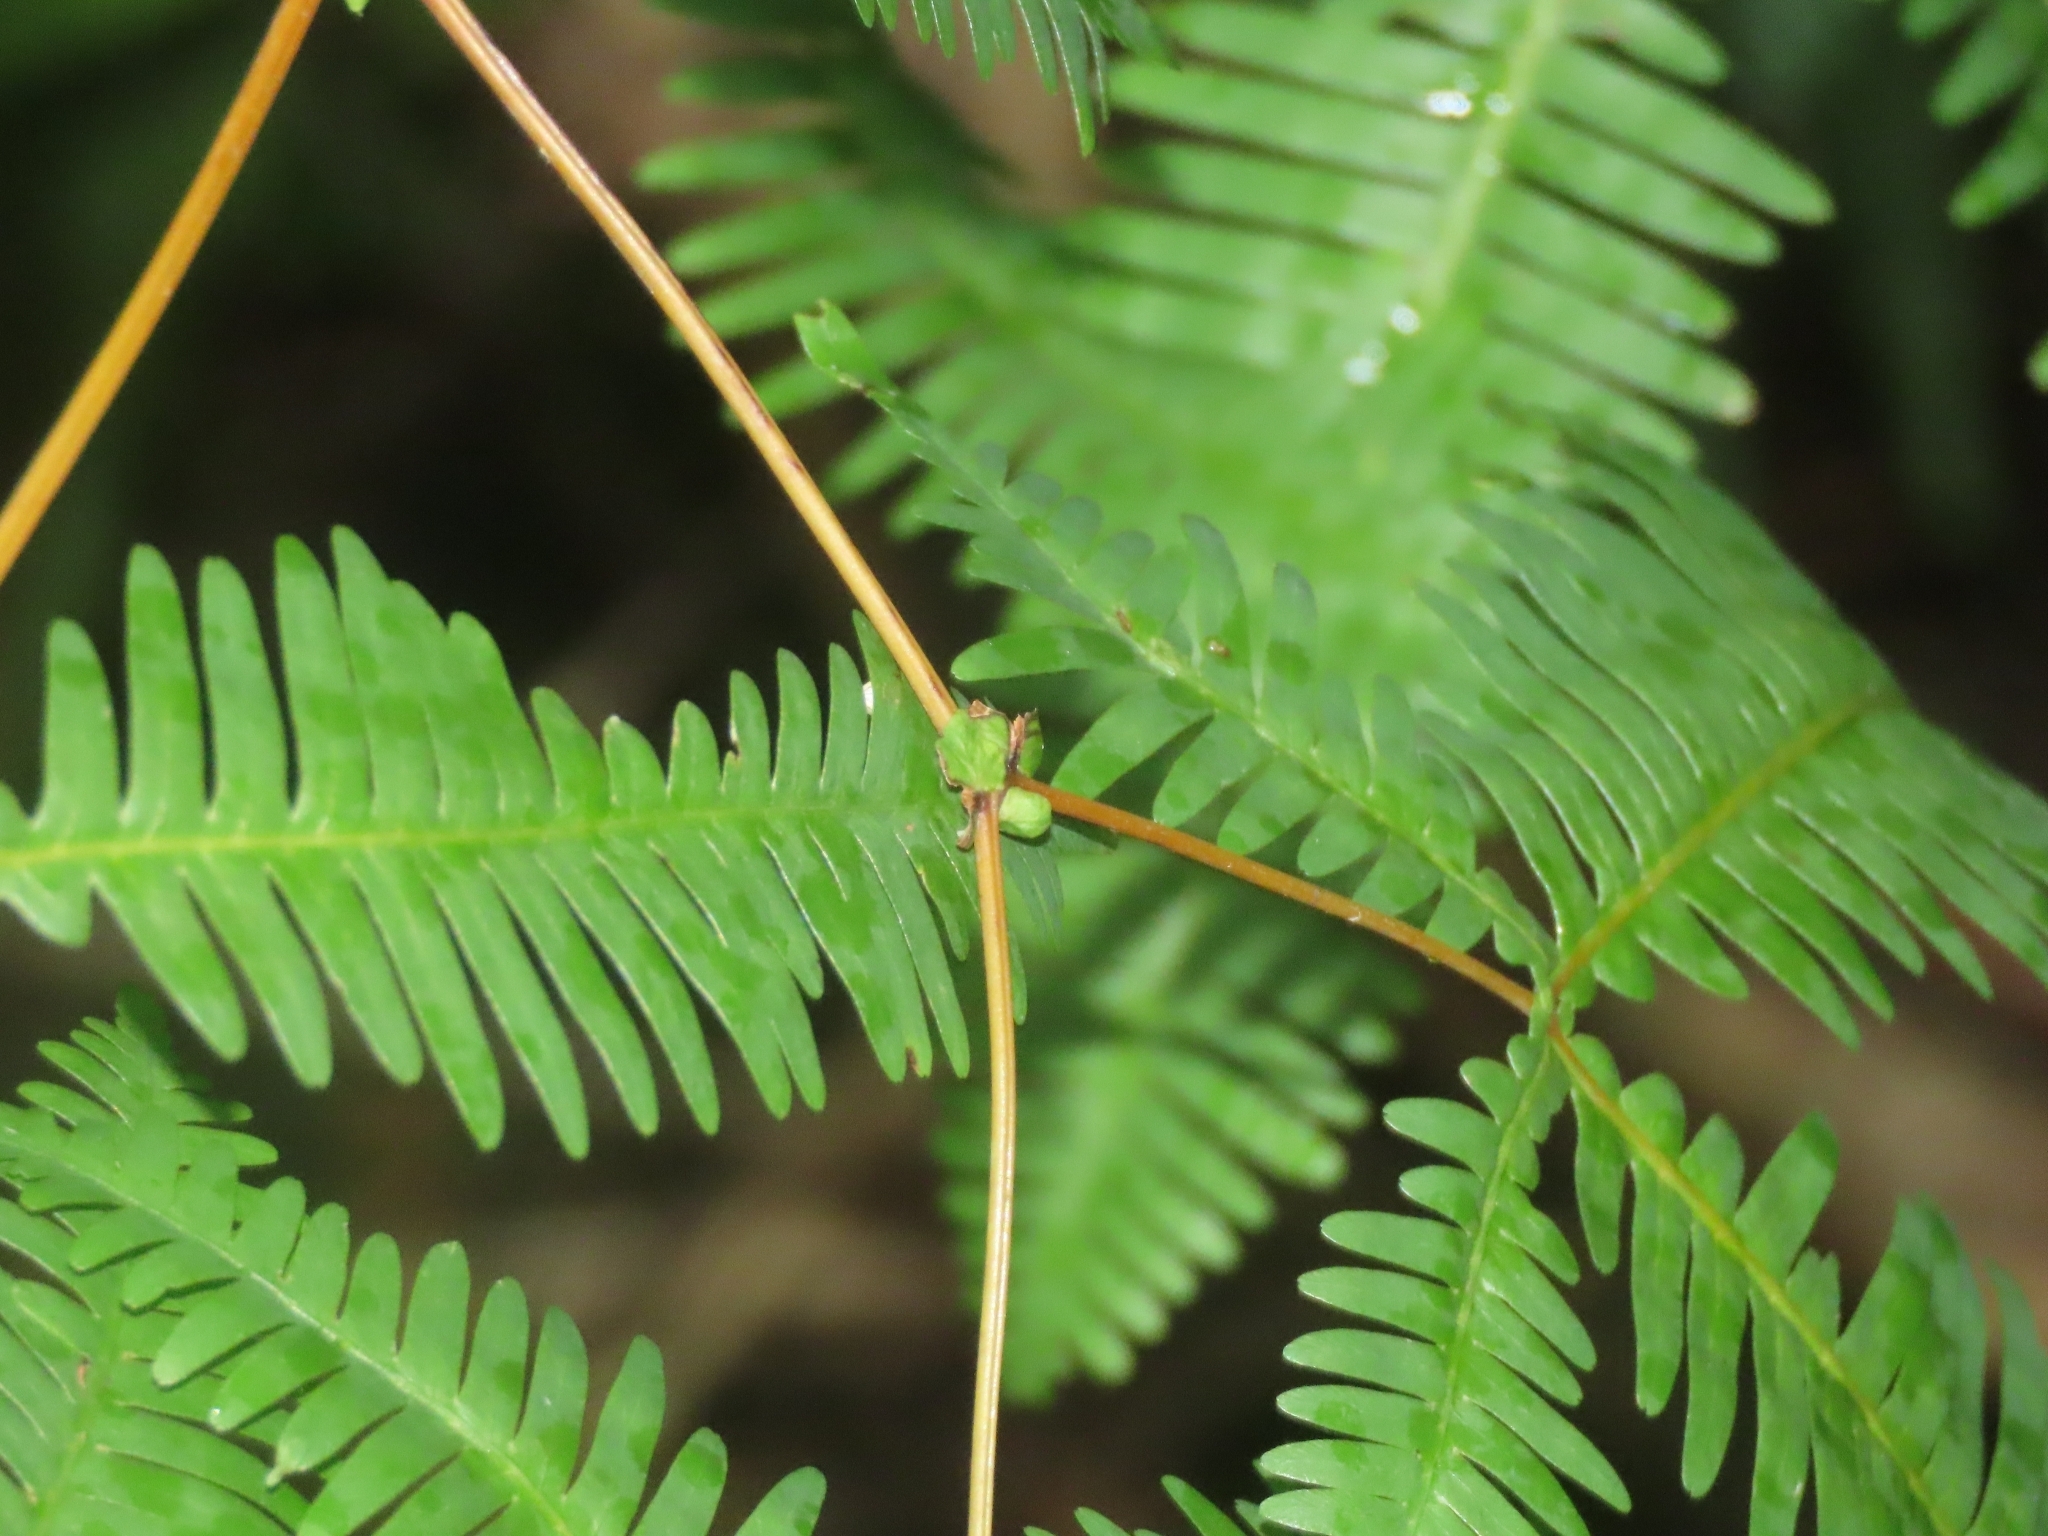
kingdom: Plantae
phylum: Tracheophyta
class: Polypodiopsida
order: Gleicheniales
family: Gleicheniaceae
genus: Dicranopteris
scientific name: Dicranopteris tetraphylla
